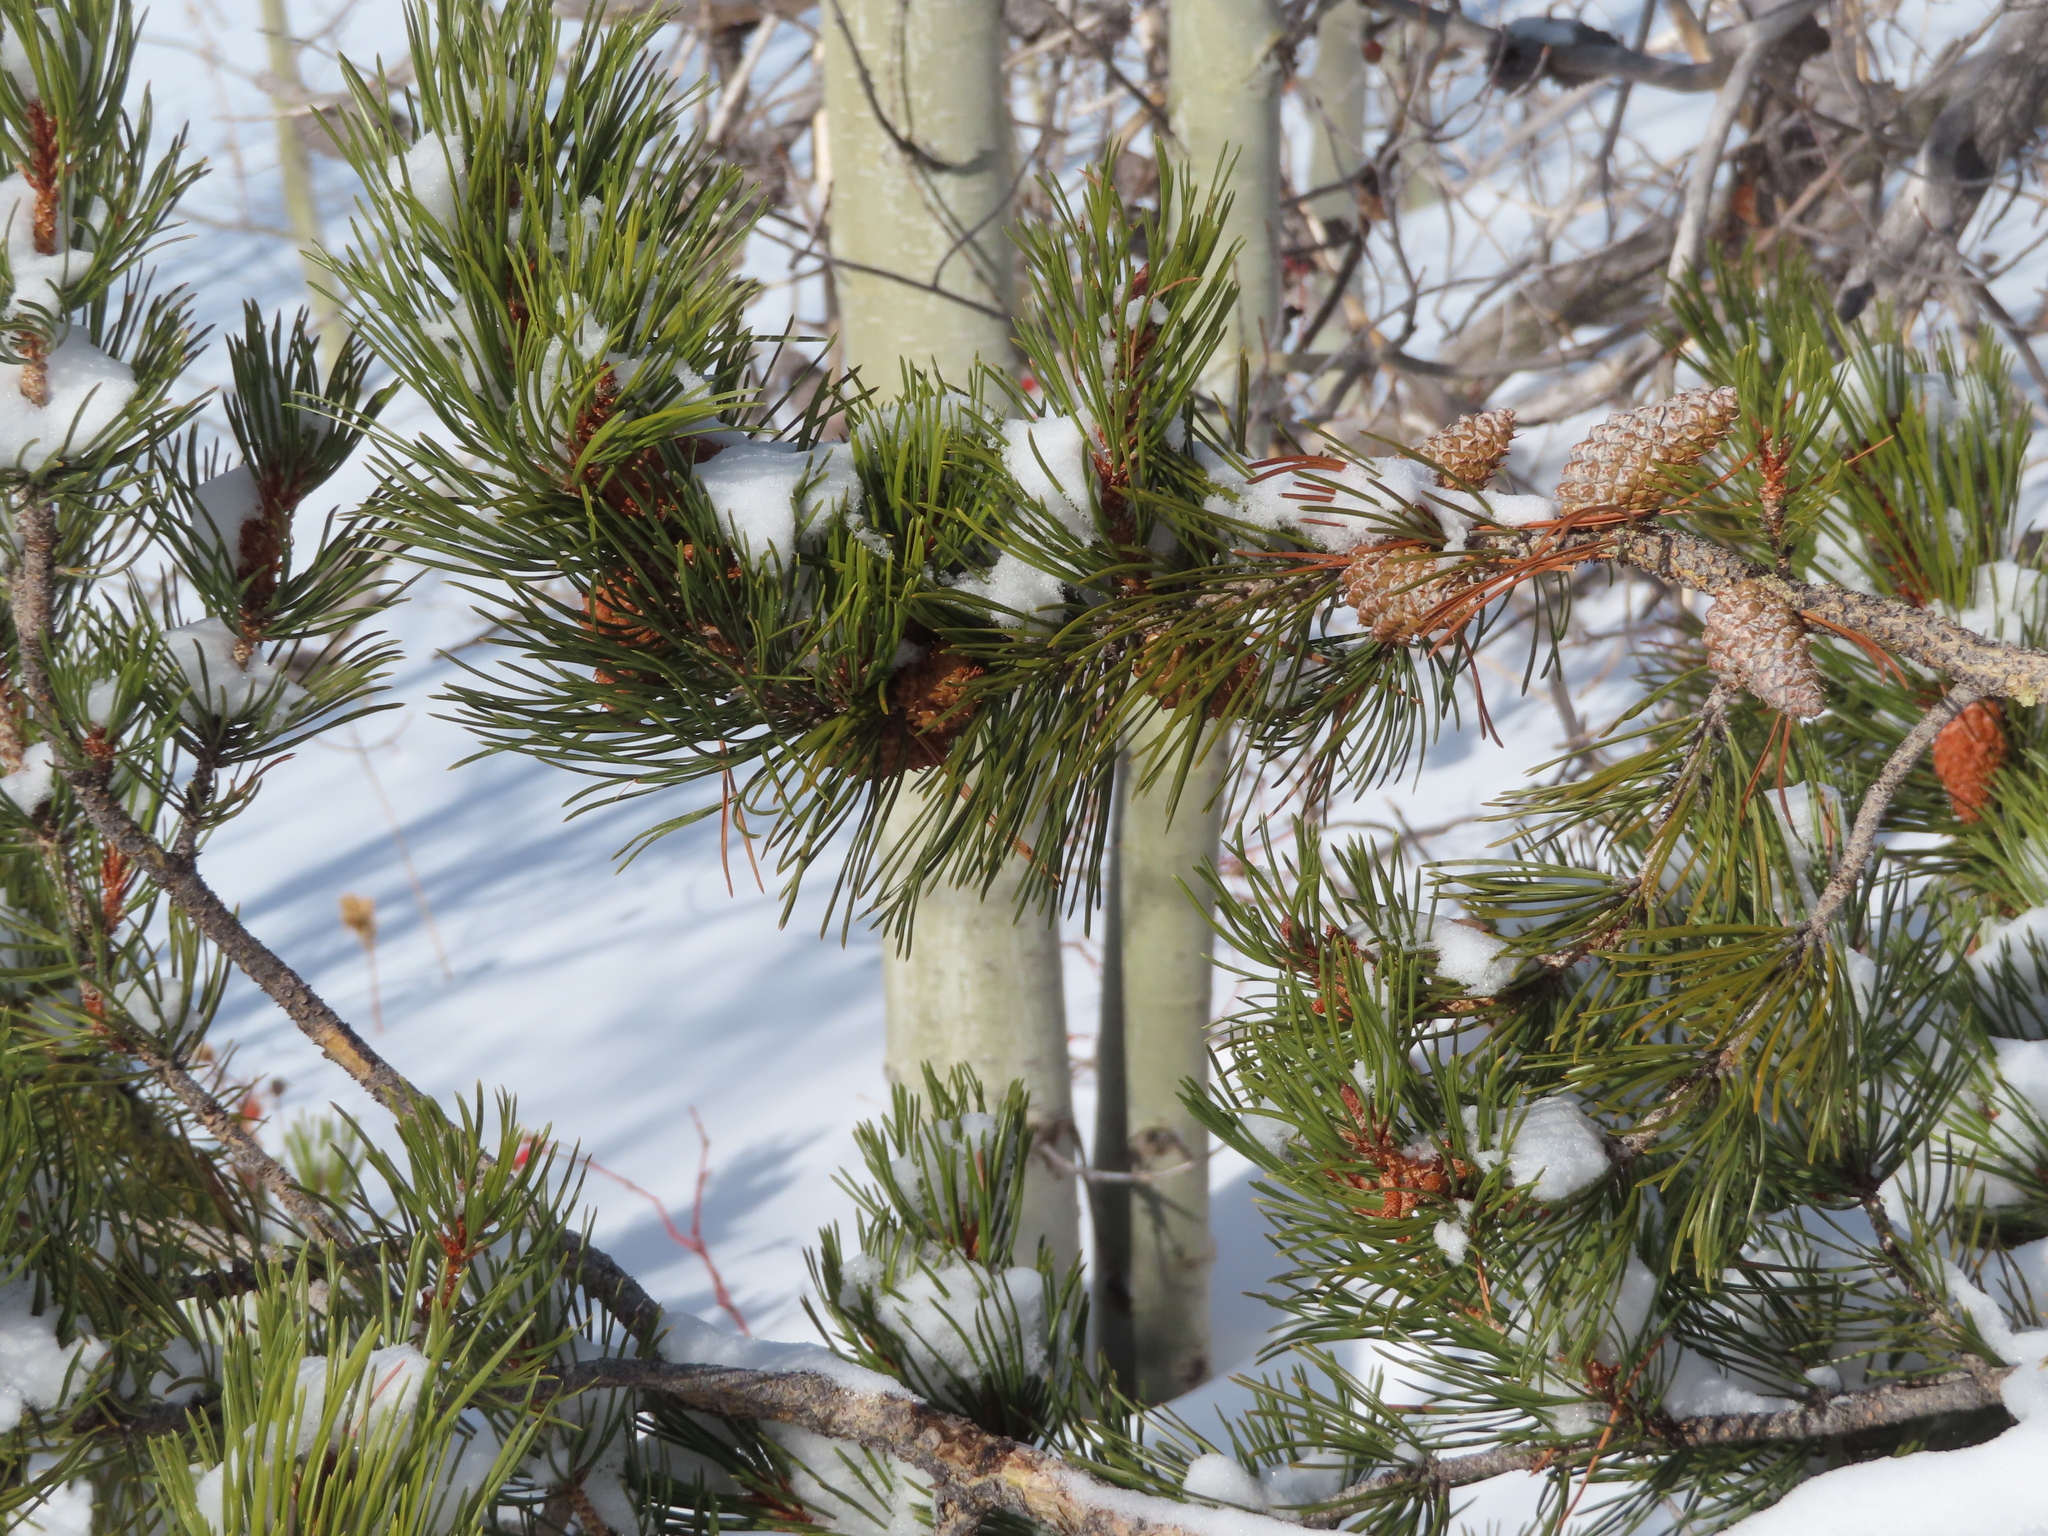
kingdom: Plantae
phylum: Tracheophyta
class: Pinopsida
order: Pinales
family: Pinaceae
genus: Pinus
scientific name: Pinus contorta
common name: Lodgepole pine
